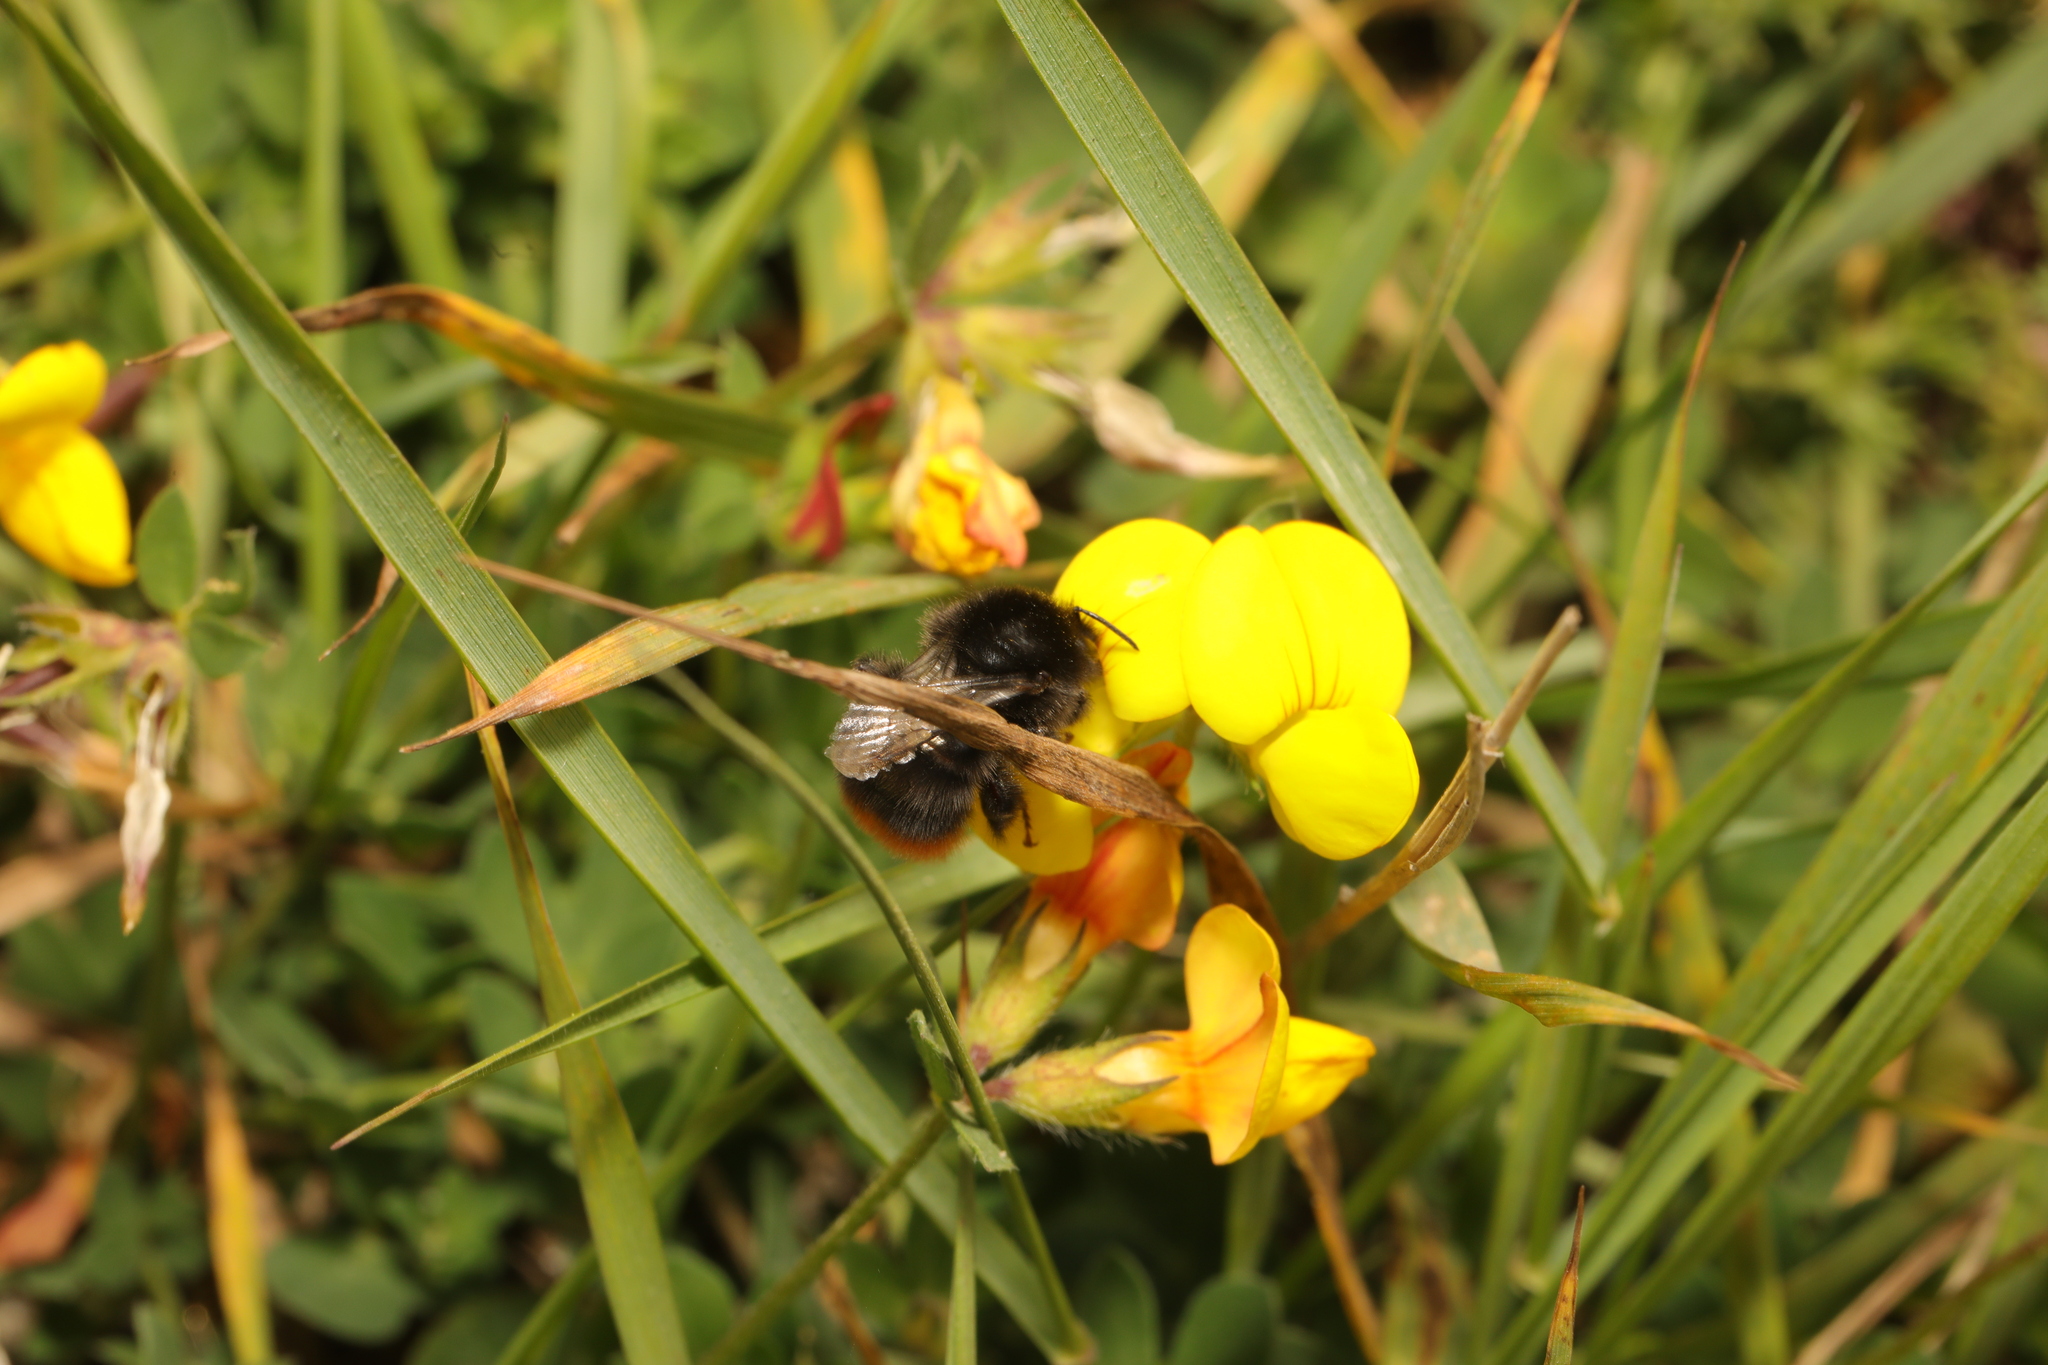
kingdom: Animalia
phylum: Arthropoda
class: Insecta
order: Hymenoptera
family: Apidae
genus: Bombus
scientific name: Bombus lapidarius
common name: Large red-tailed humble-bee
